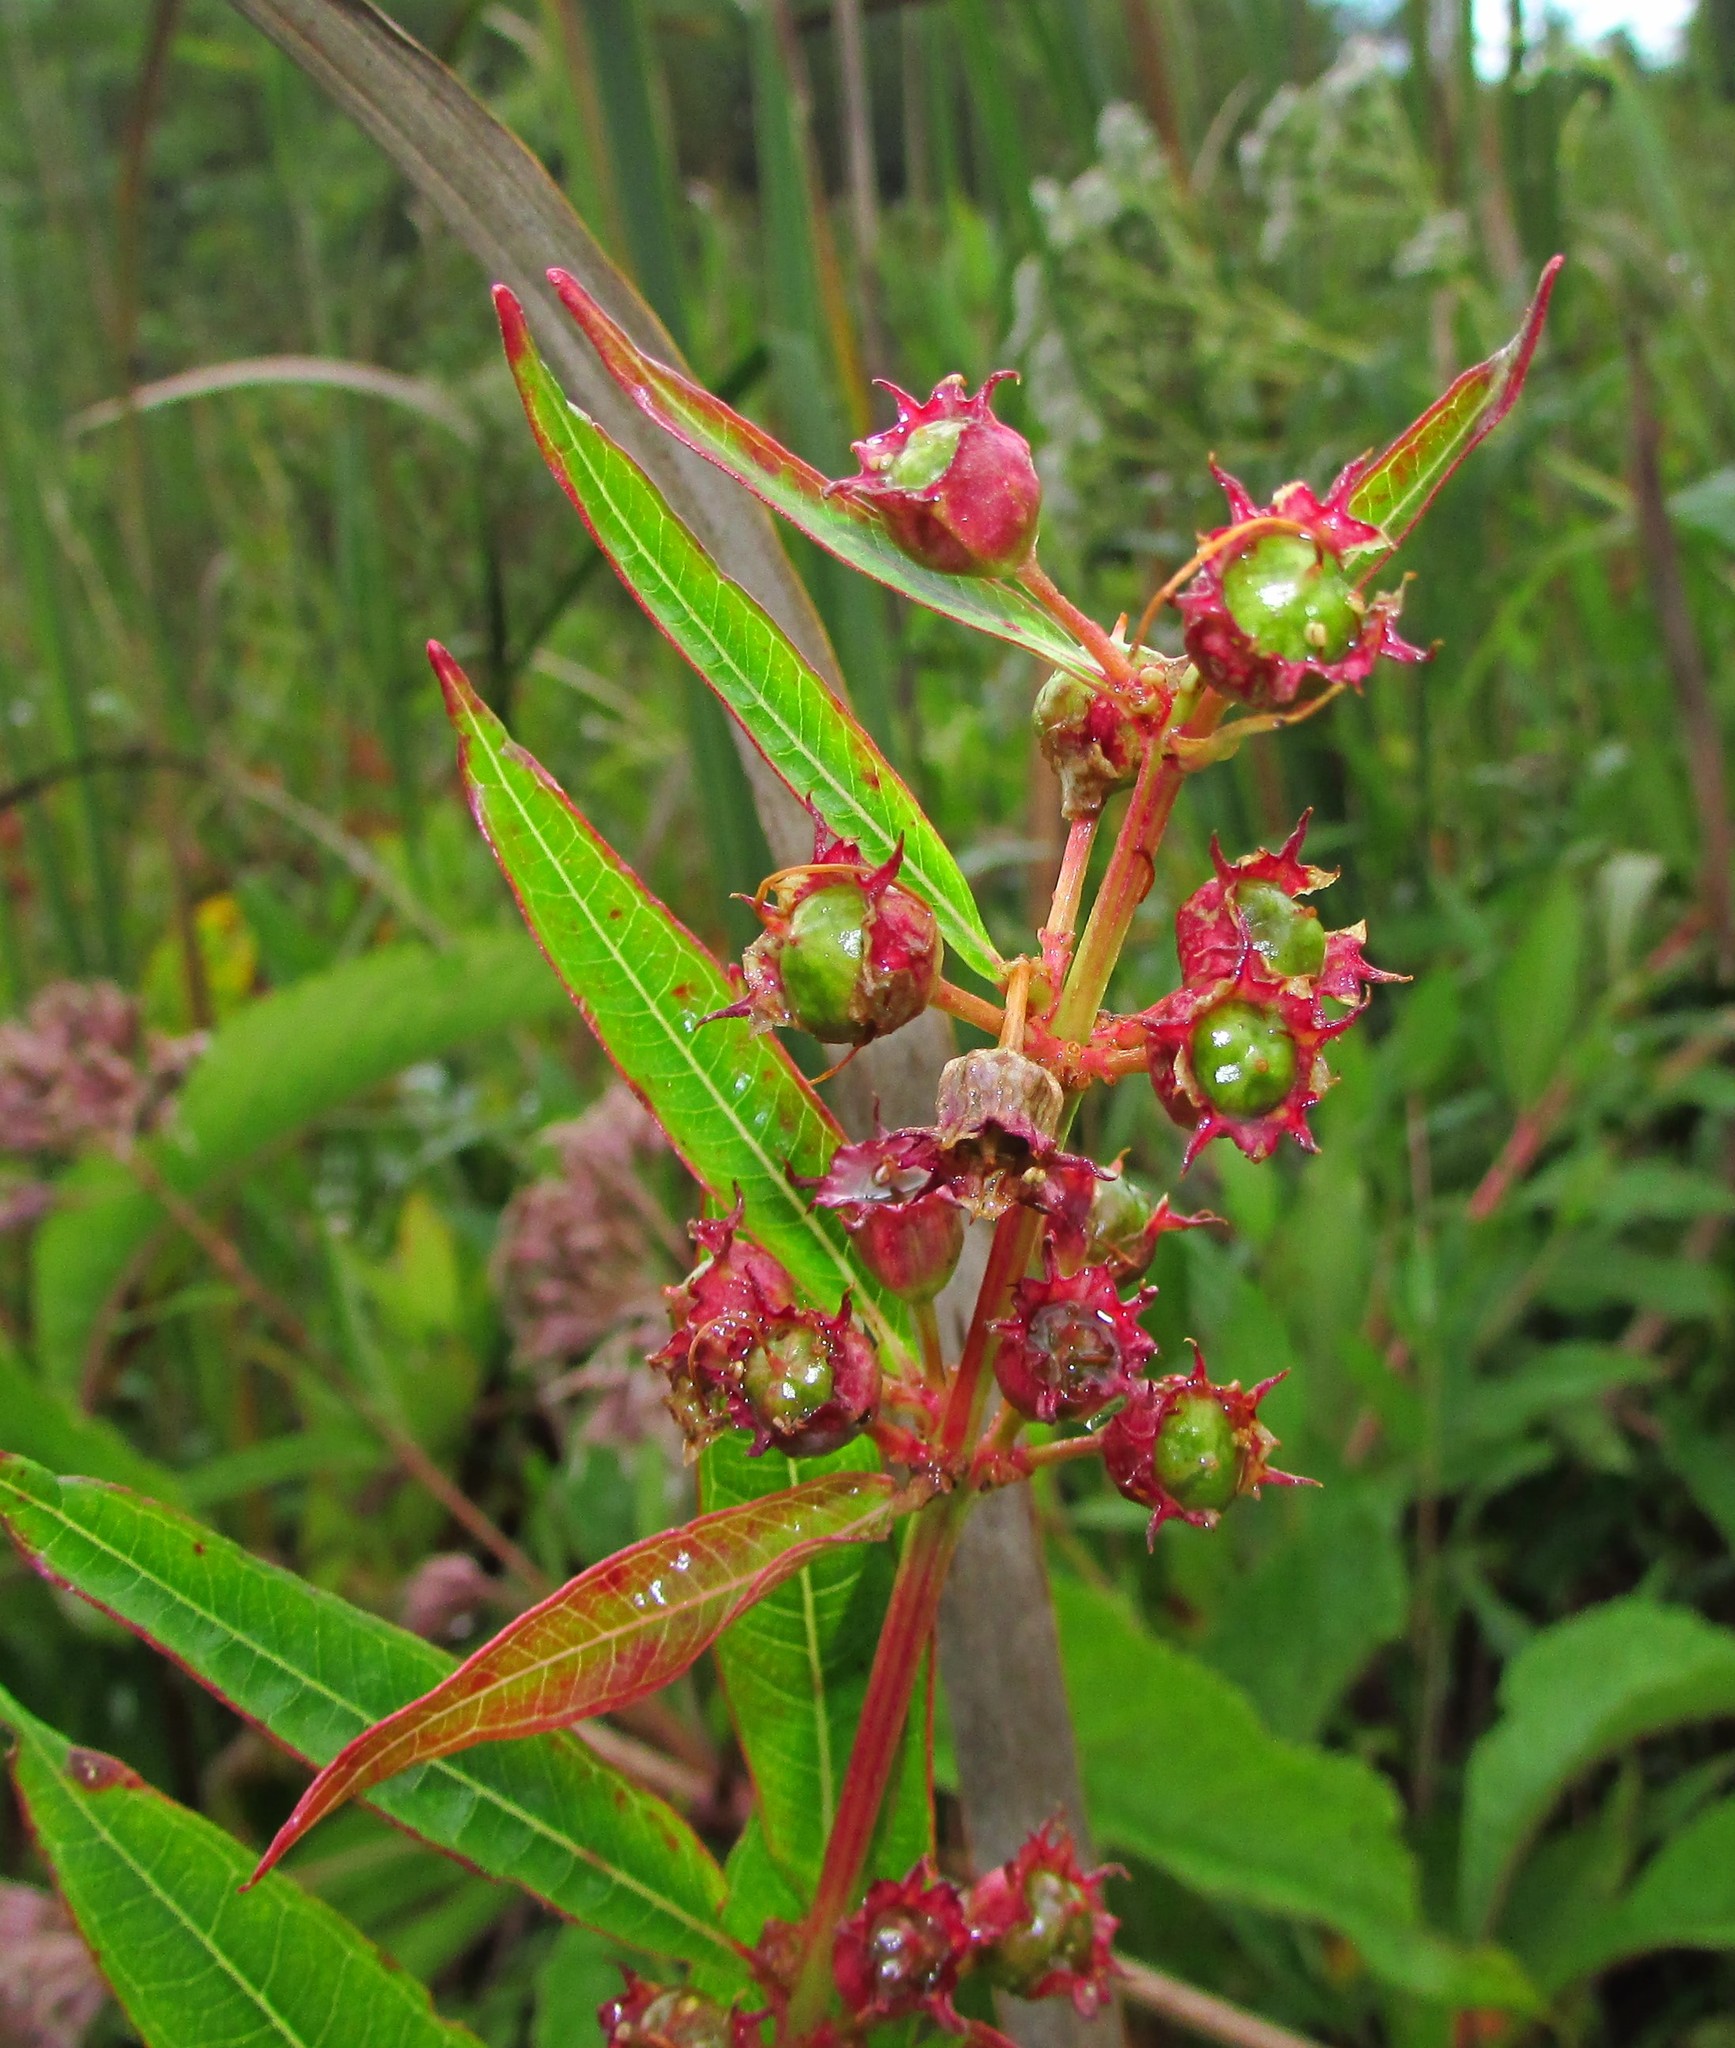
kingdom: Plantae
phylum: Tracheophyta
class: Magnoliopsida
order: Myrtales
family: Lythraceae
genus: Decodon
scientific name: Decodon verticillatus
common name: Hairy swamp loosestrife
